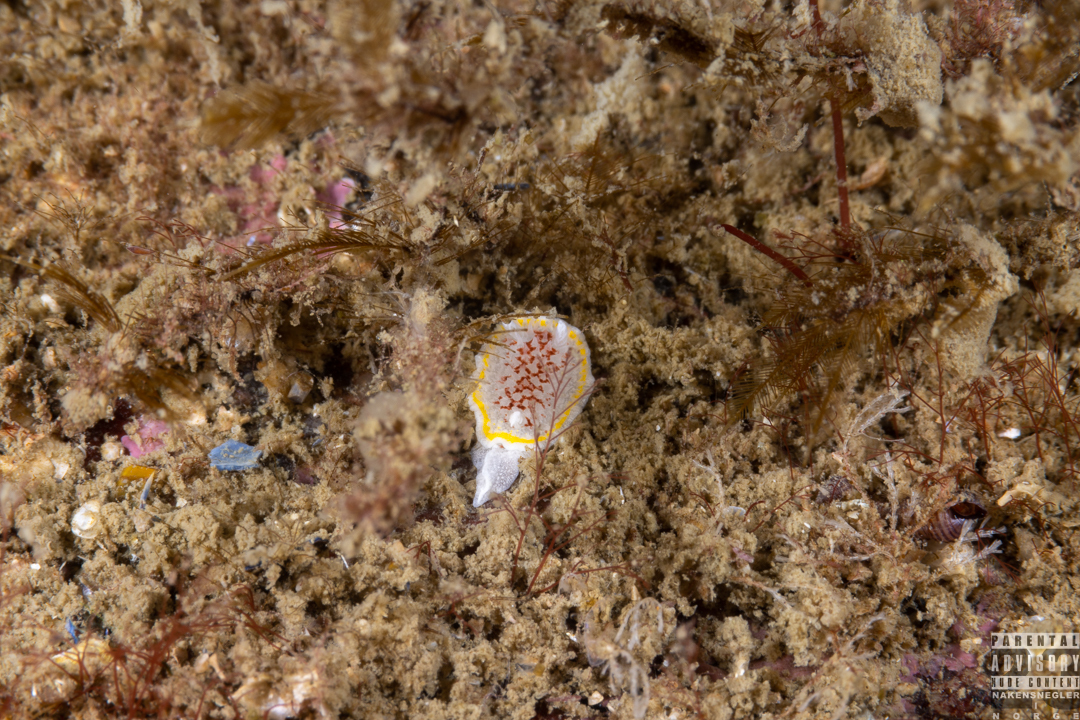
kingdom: Animalia
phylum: Mollusca
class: Gastropoda
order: Nudibranchia
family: Calycidorididae
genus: Diaphorodoris
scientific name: Diaphorodoris luteocincta
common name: Fried egg nudibranch
